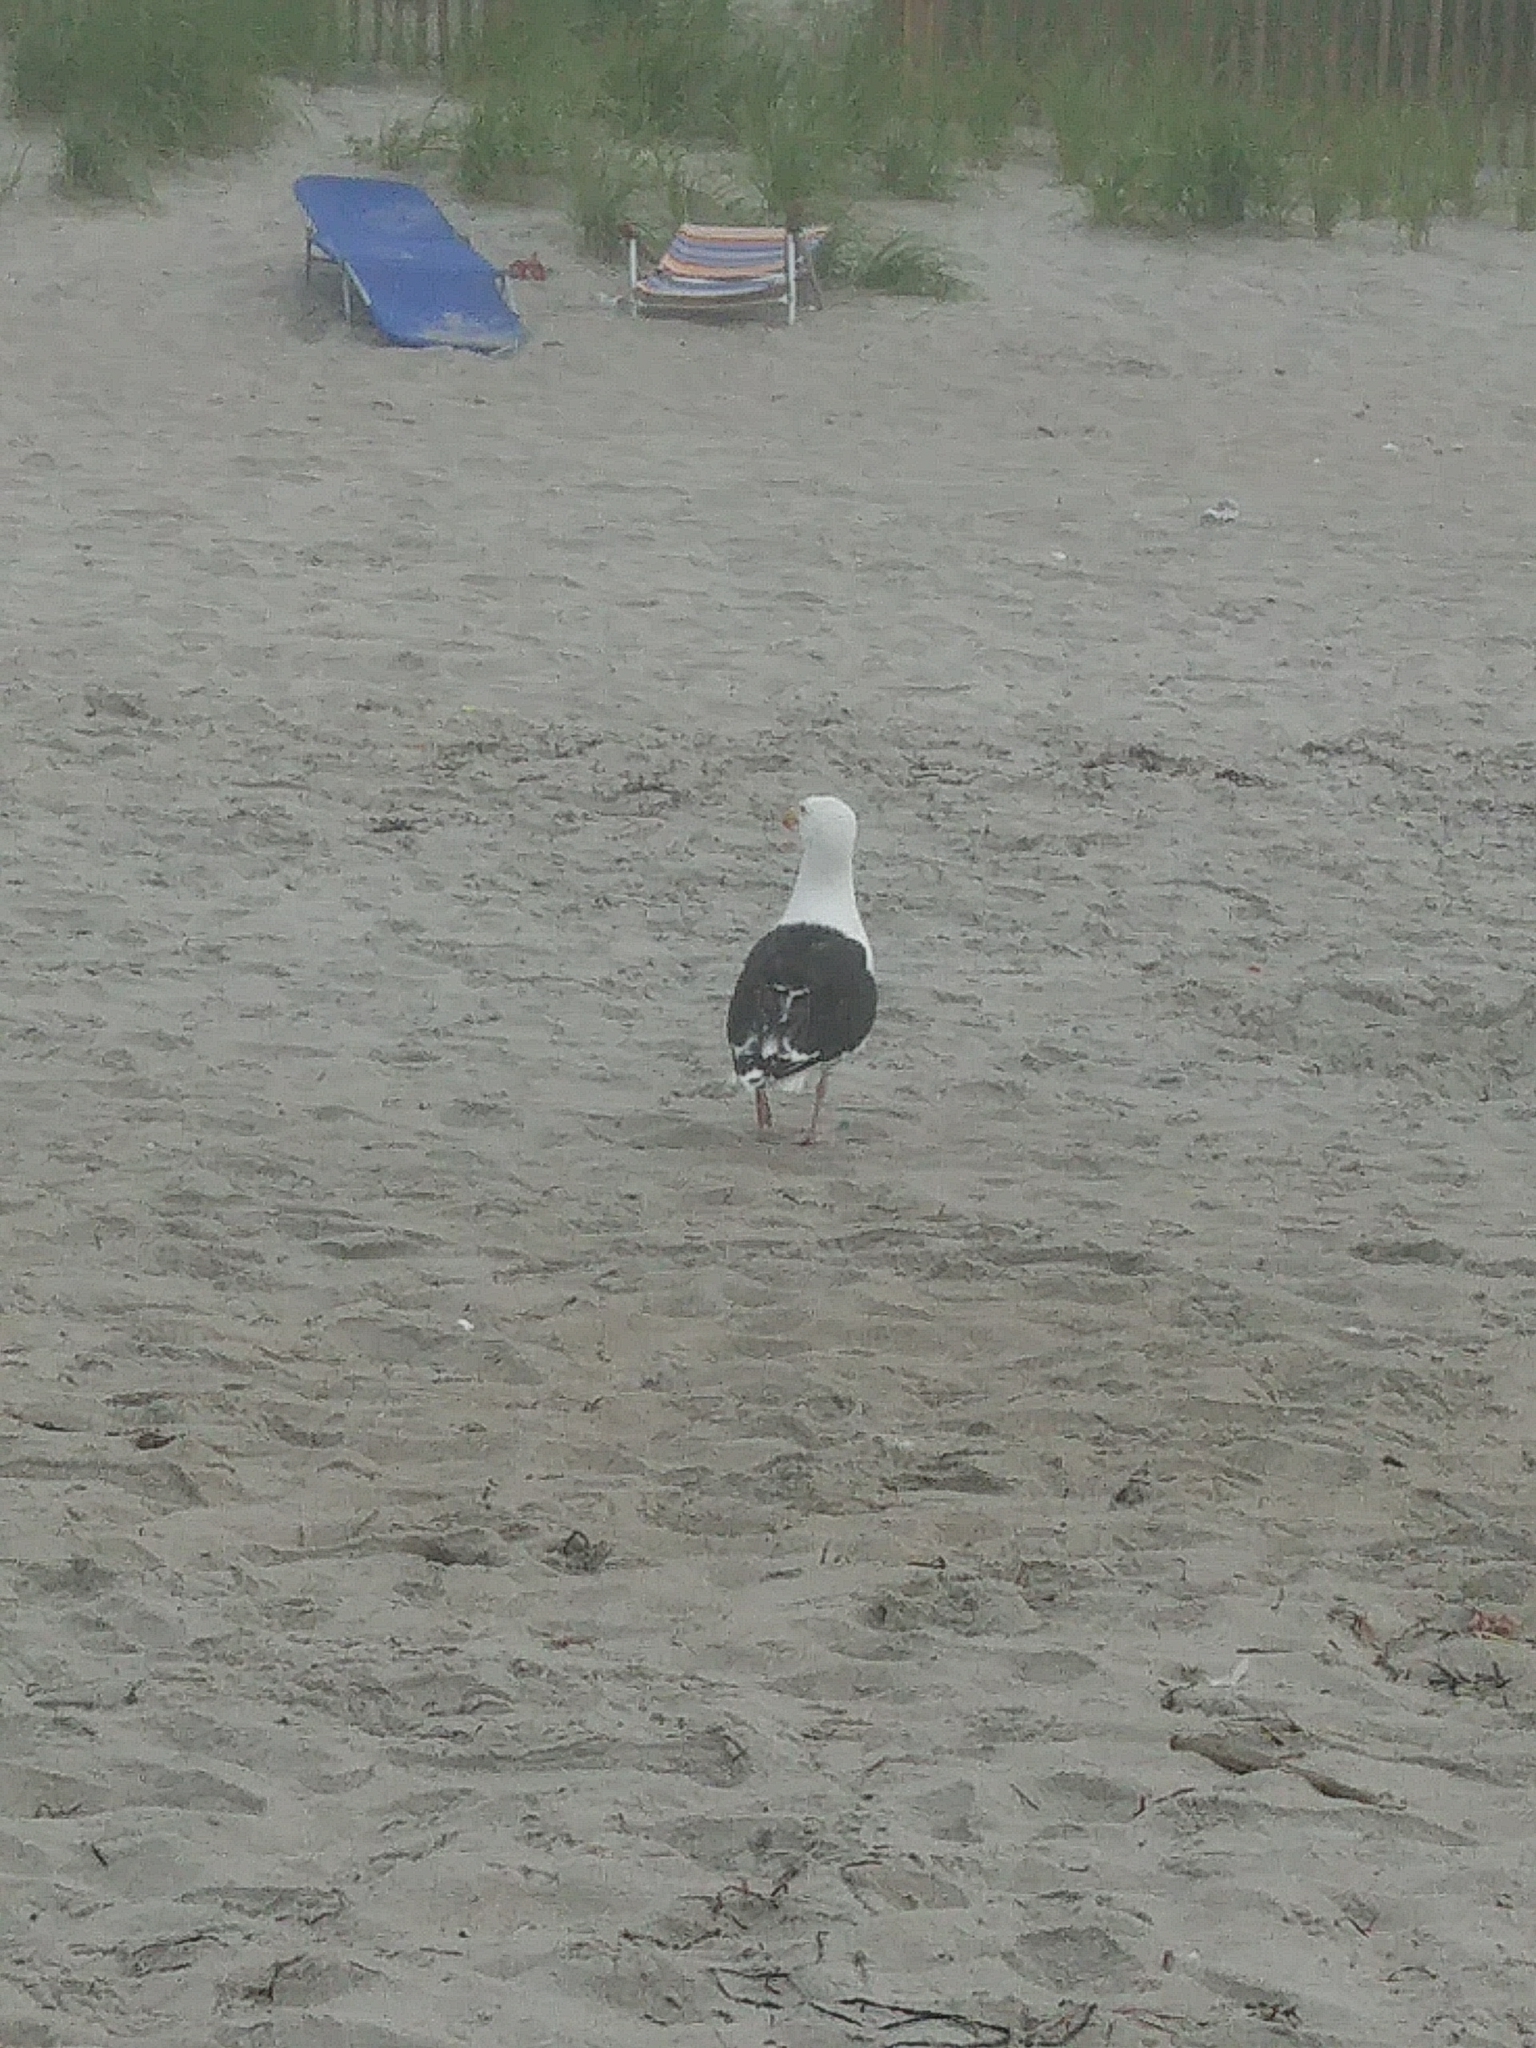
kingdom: Animalia
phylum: Chordata
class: Aves
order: Charadriiformes
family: Laridae
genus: Larus
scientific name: Larus marinus
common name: Great black-backed gull
